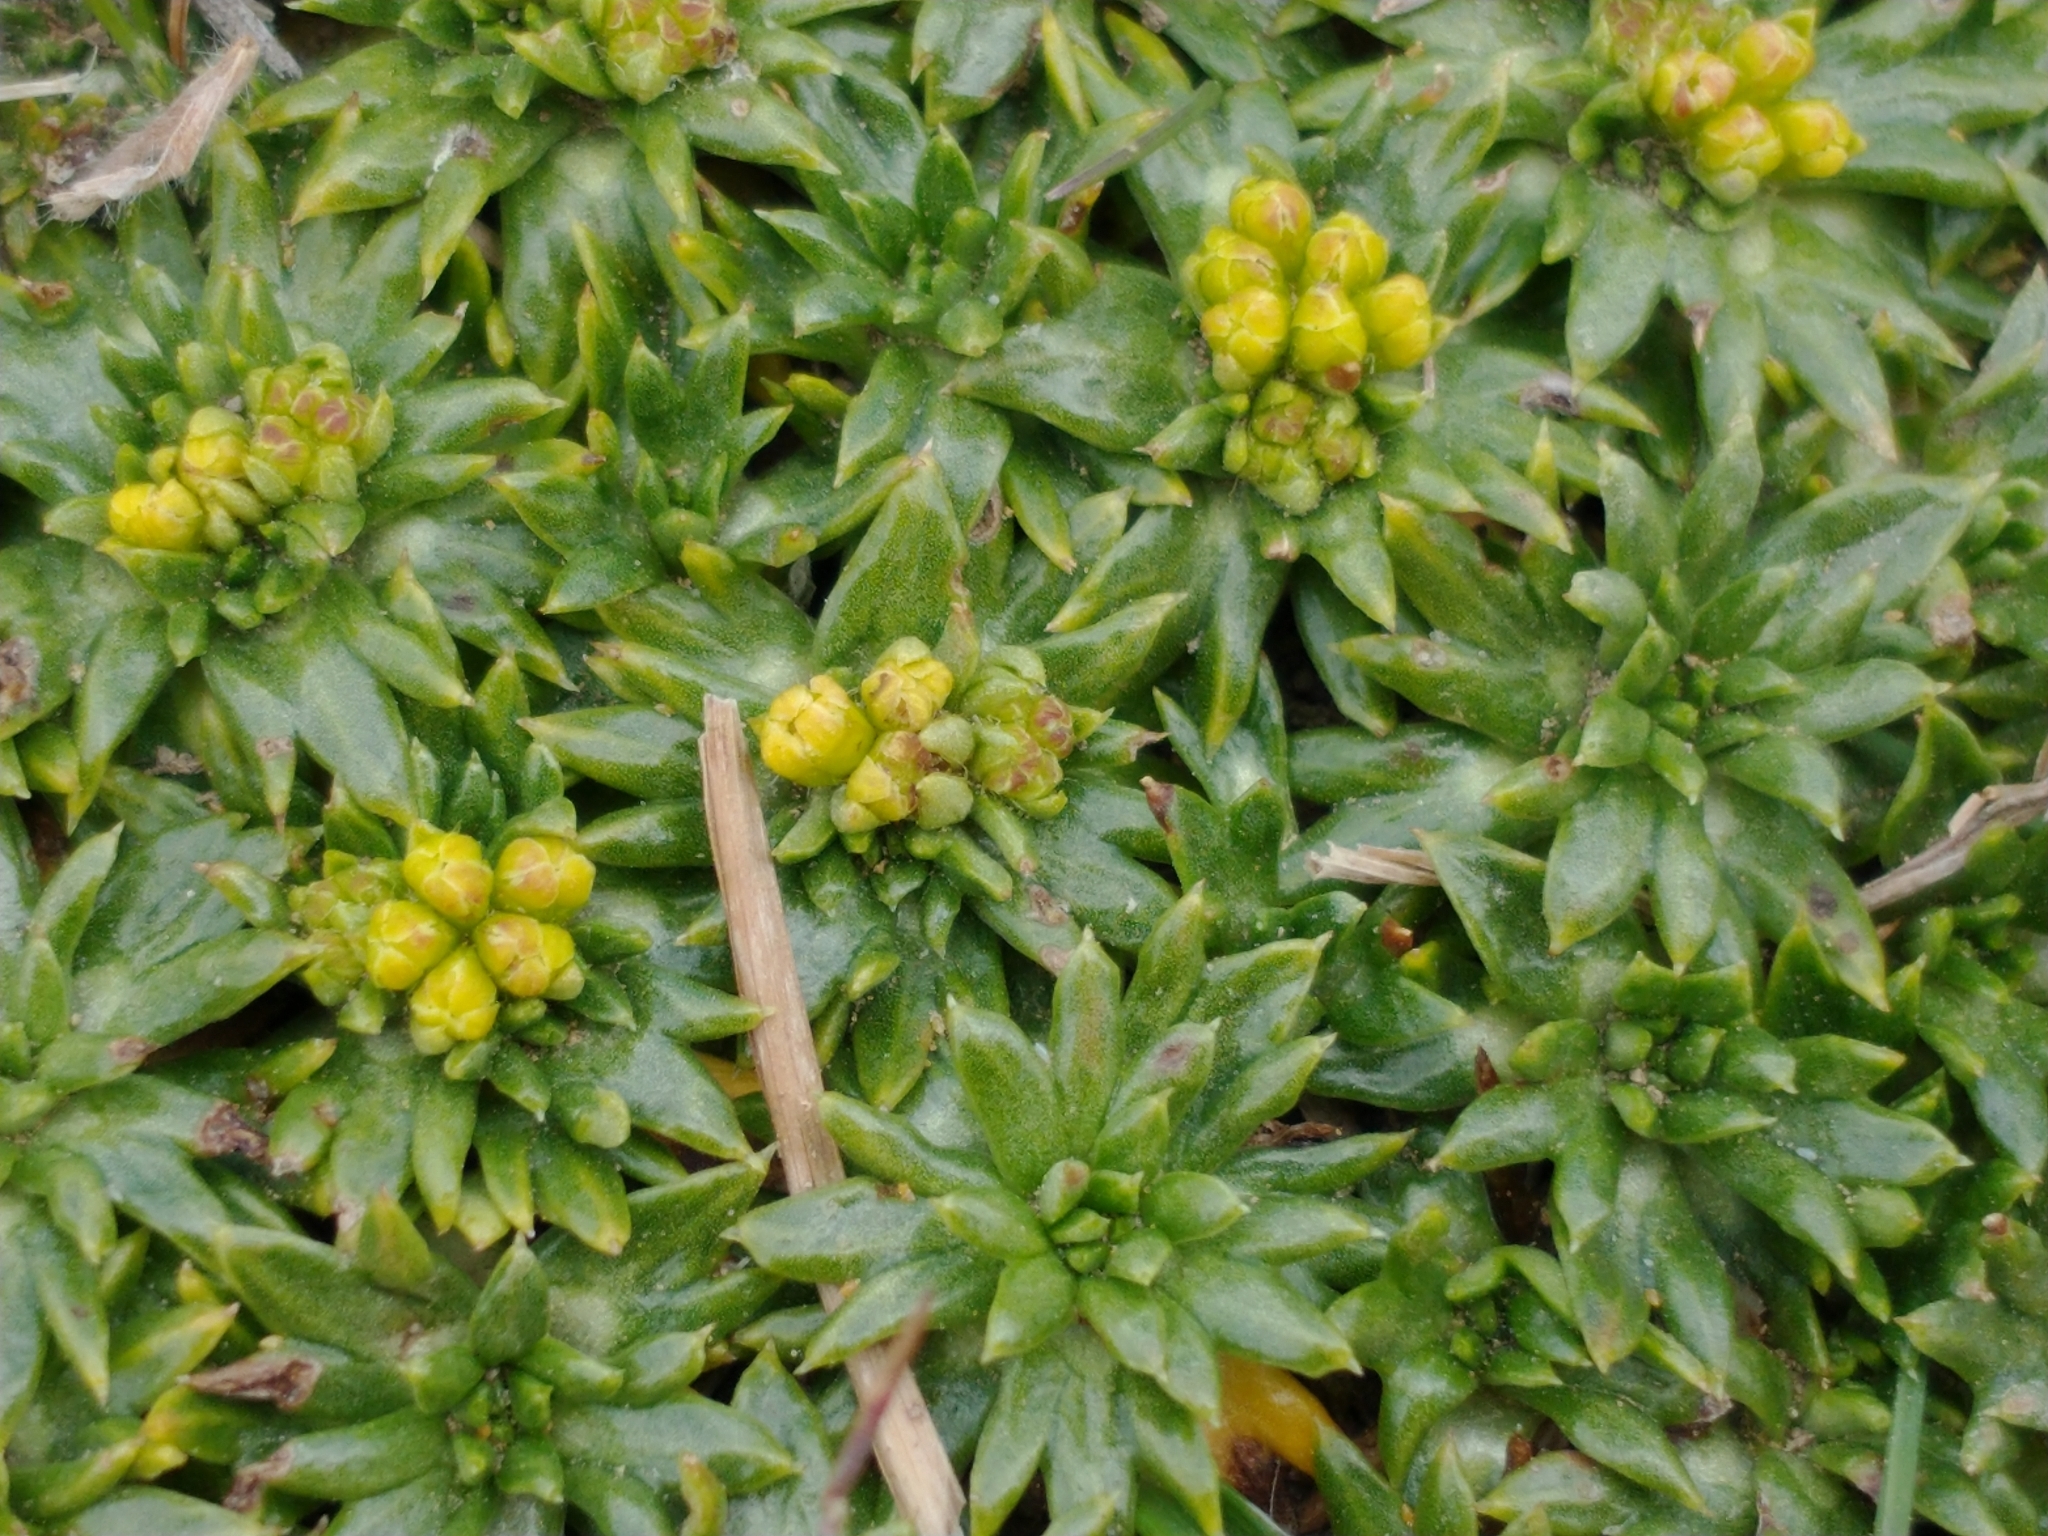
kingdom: Plantae
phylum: Tracheophyta
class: Magnoliopsida
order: Apiales
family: Apiaceae
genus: Azorella
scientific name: Azorella trifurcata
